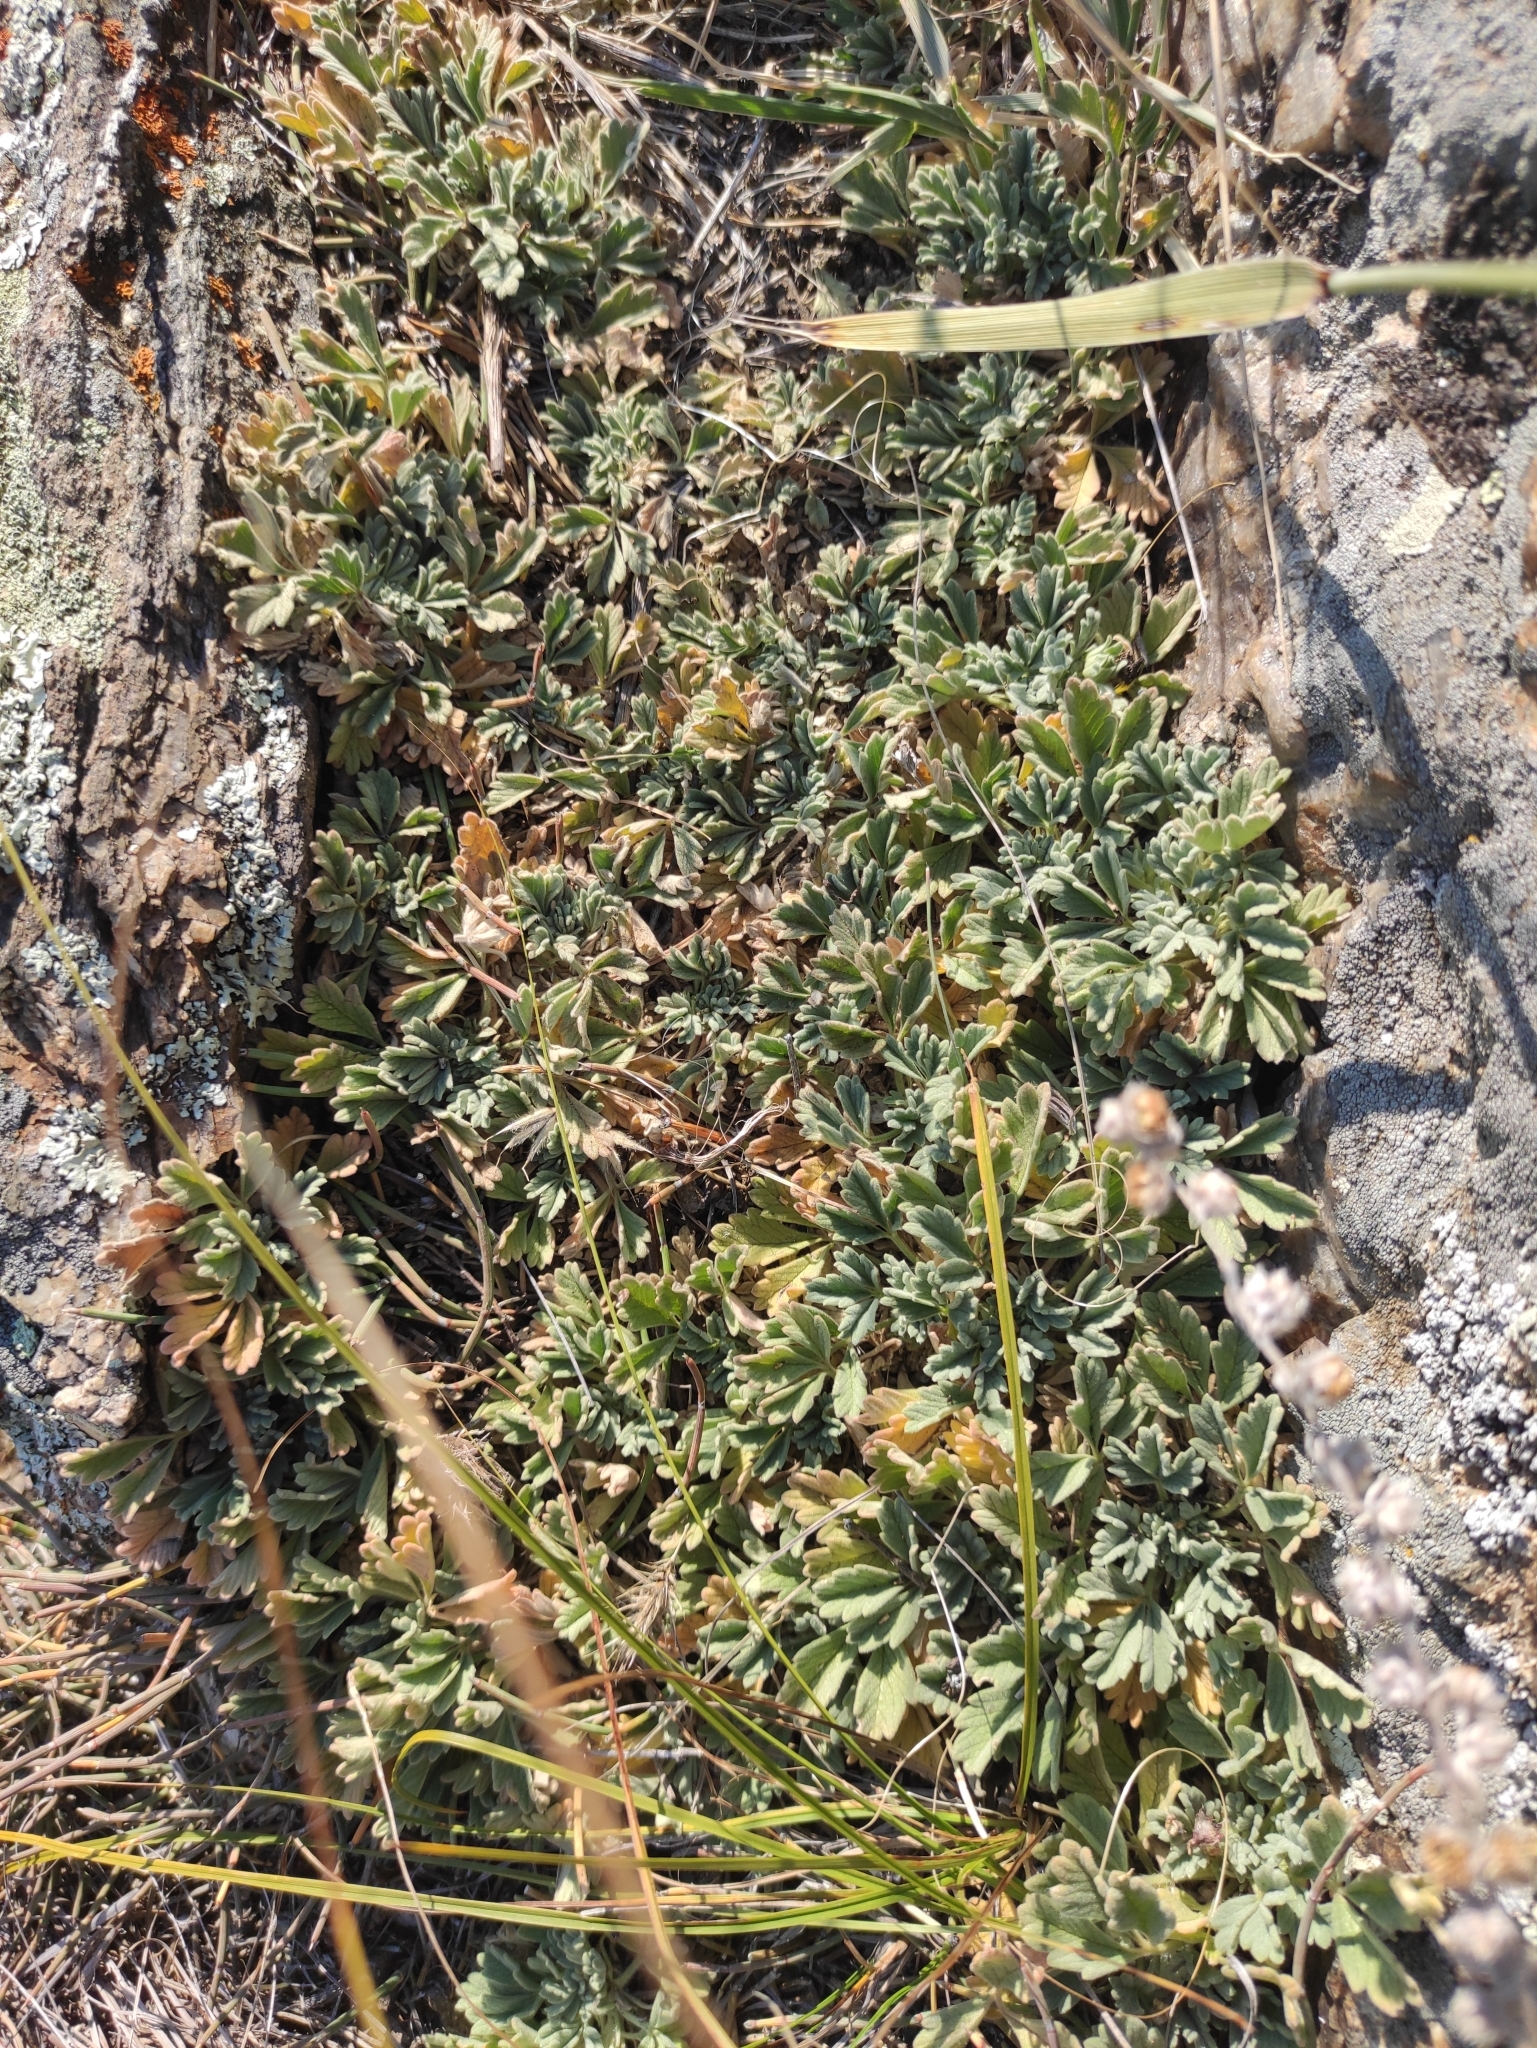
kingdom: Plantae
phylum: Tracheophyta
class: Magnoliopsida
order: Rosales
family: Rosaceae
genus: Potentilla
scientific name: Potentilla acaulis
